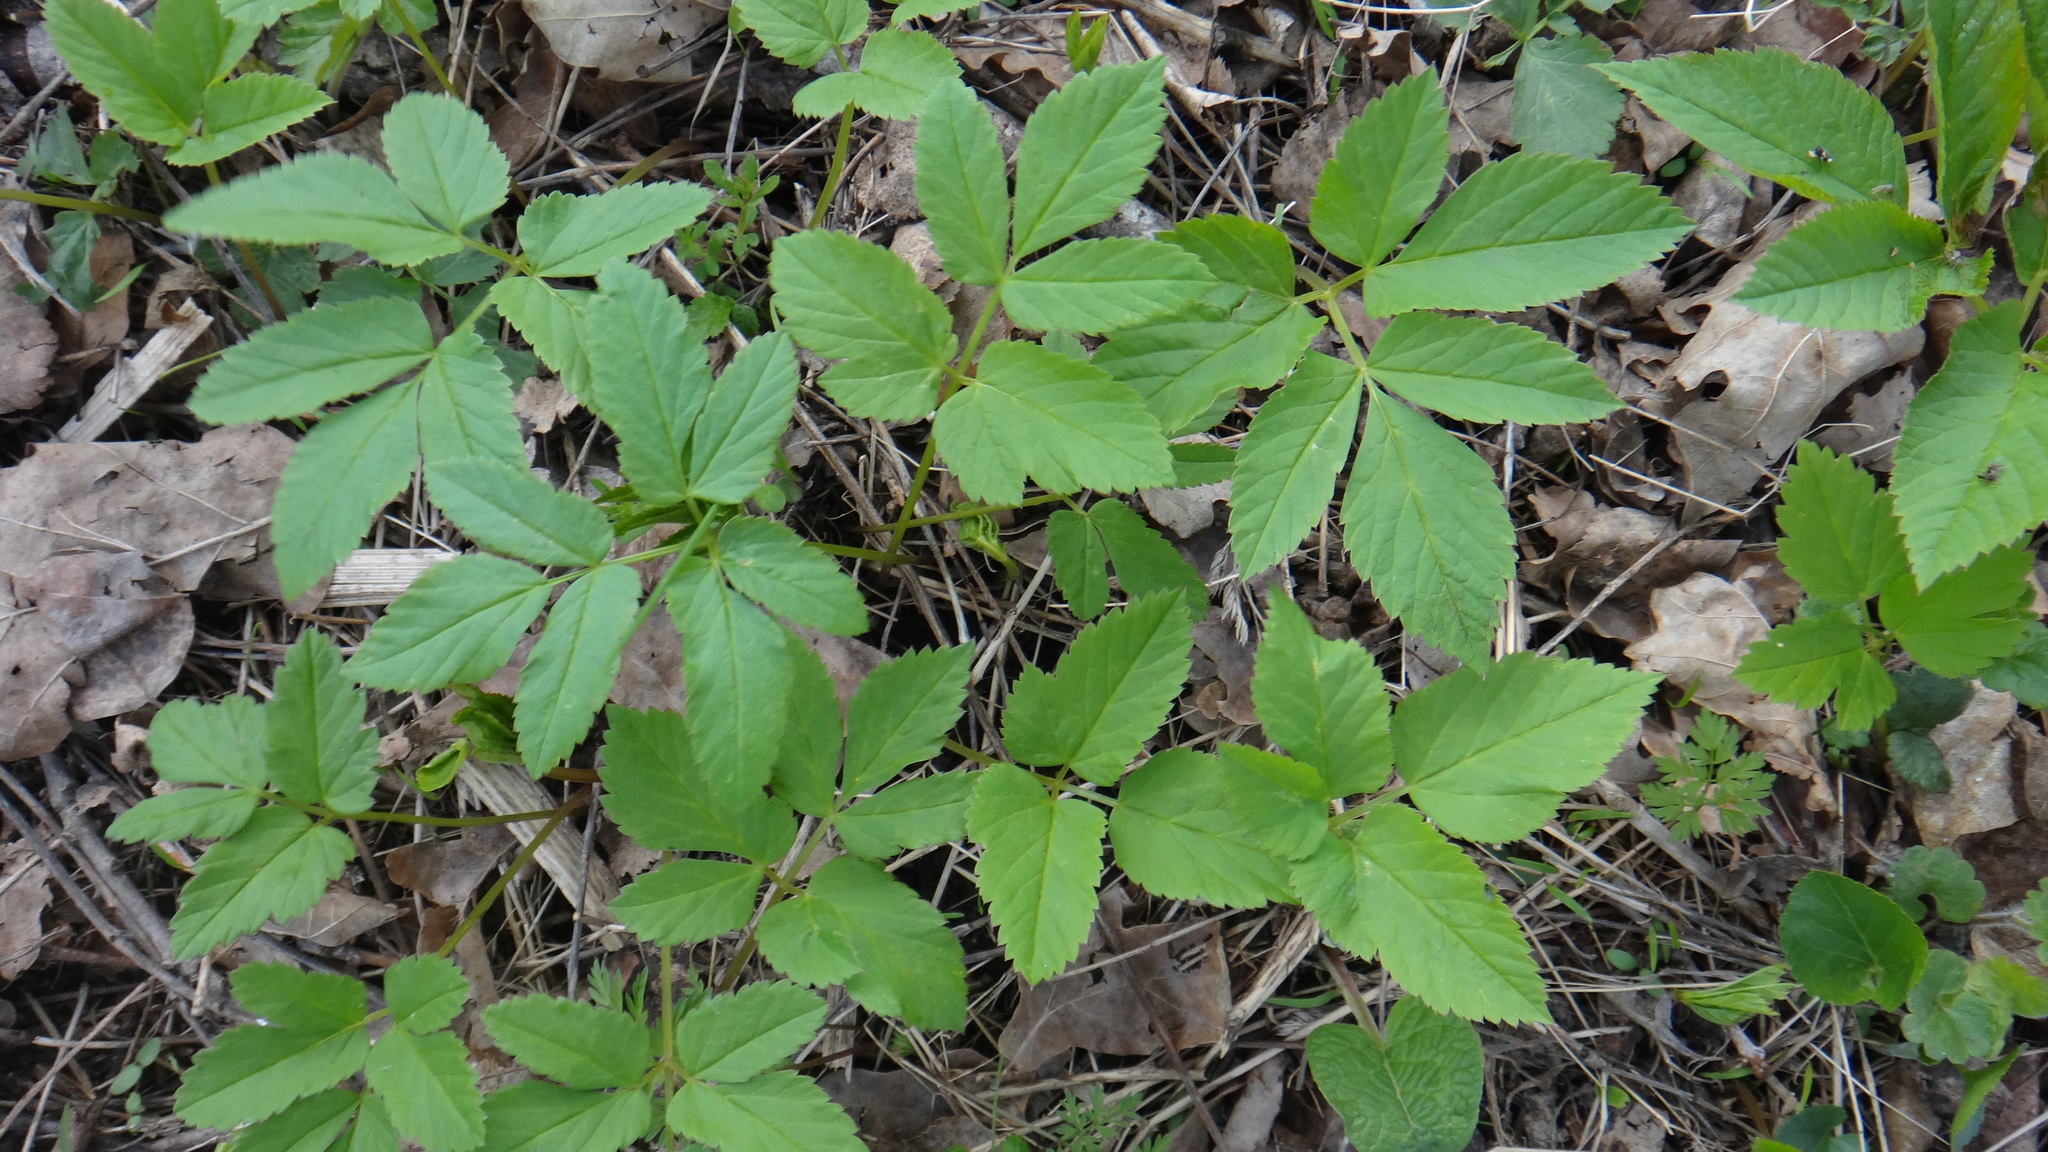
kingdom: Plantae
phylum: Tracheophyta
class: Magnoliopsida
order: Apiales
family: Apiaceae
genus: Aegopodium
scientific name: Aegopodium podagraria
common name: Ground-elder
